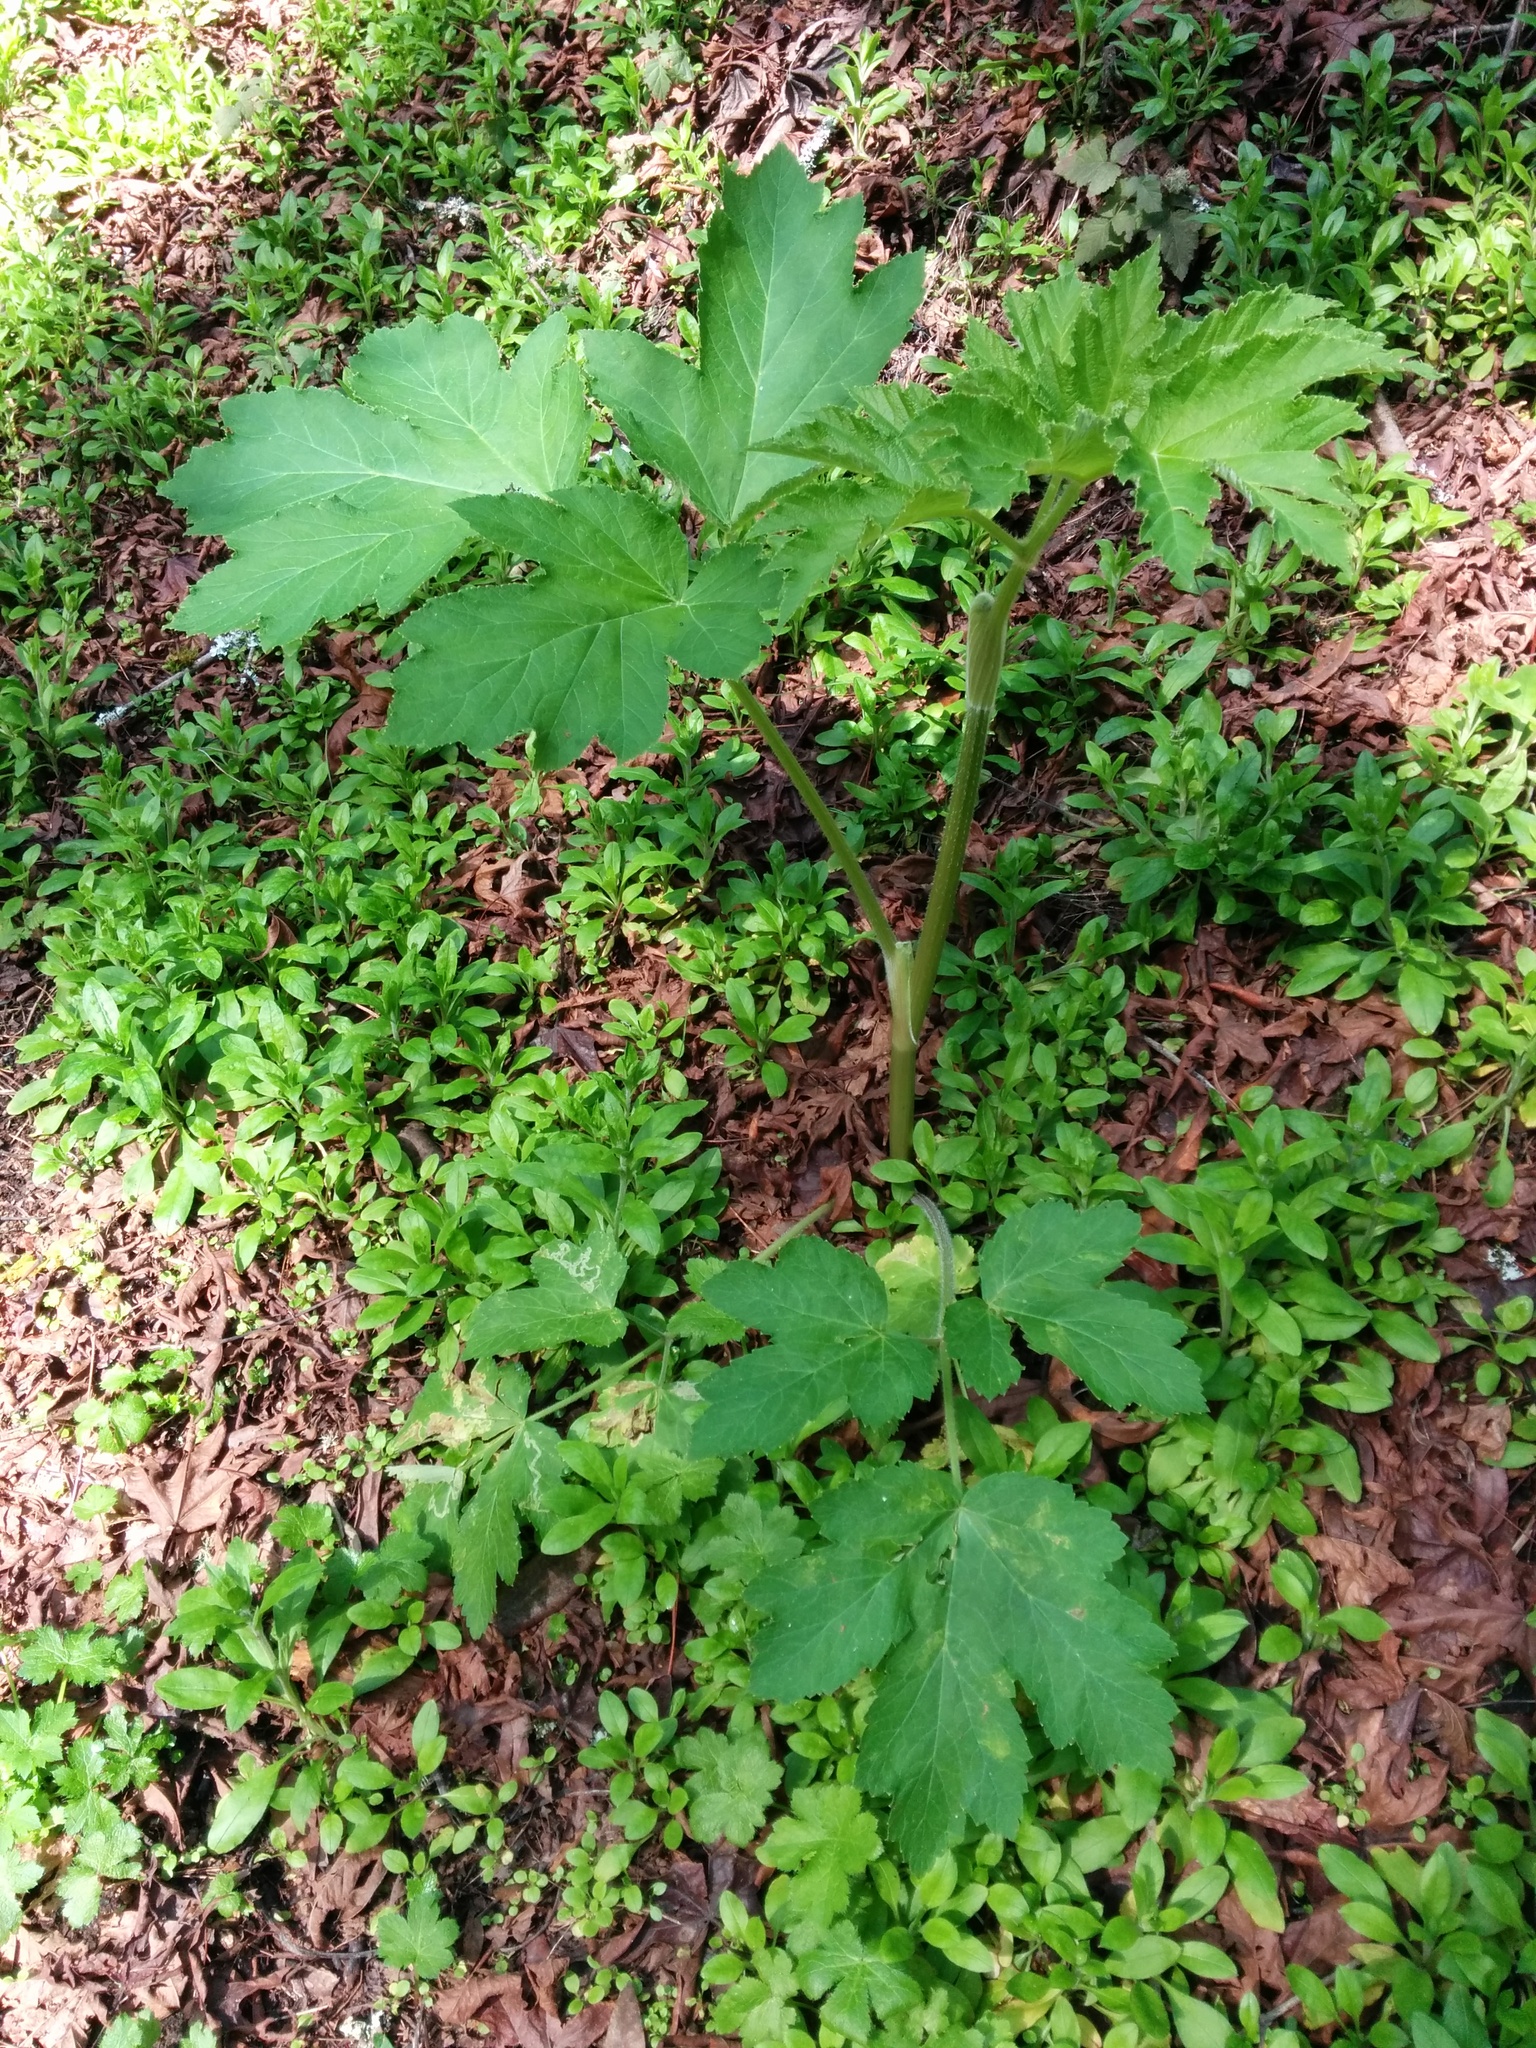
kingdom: Plantae
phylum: Tracheophyta
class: Magnoliopsida
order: Apiales
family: Apiaceae
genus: Heracleum
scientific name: Heracleum maximum
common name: American cow parsnip
